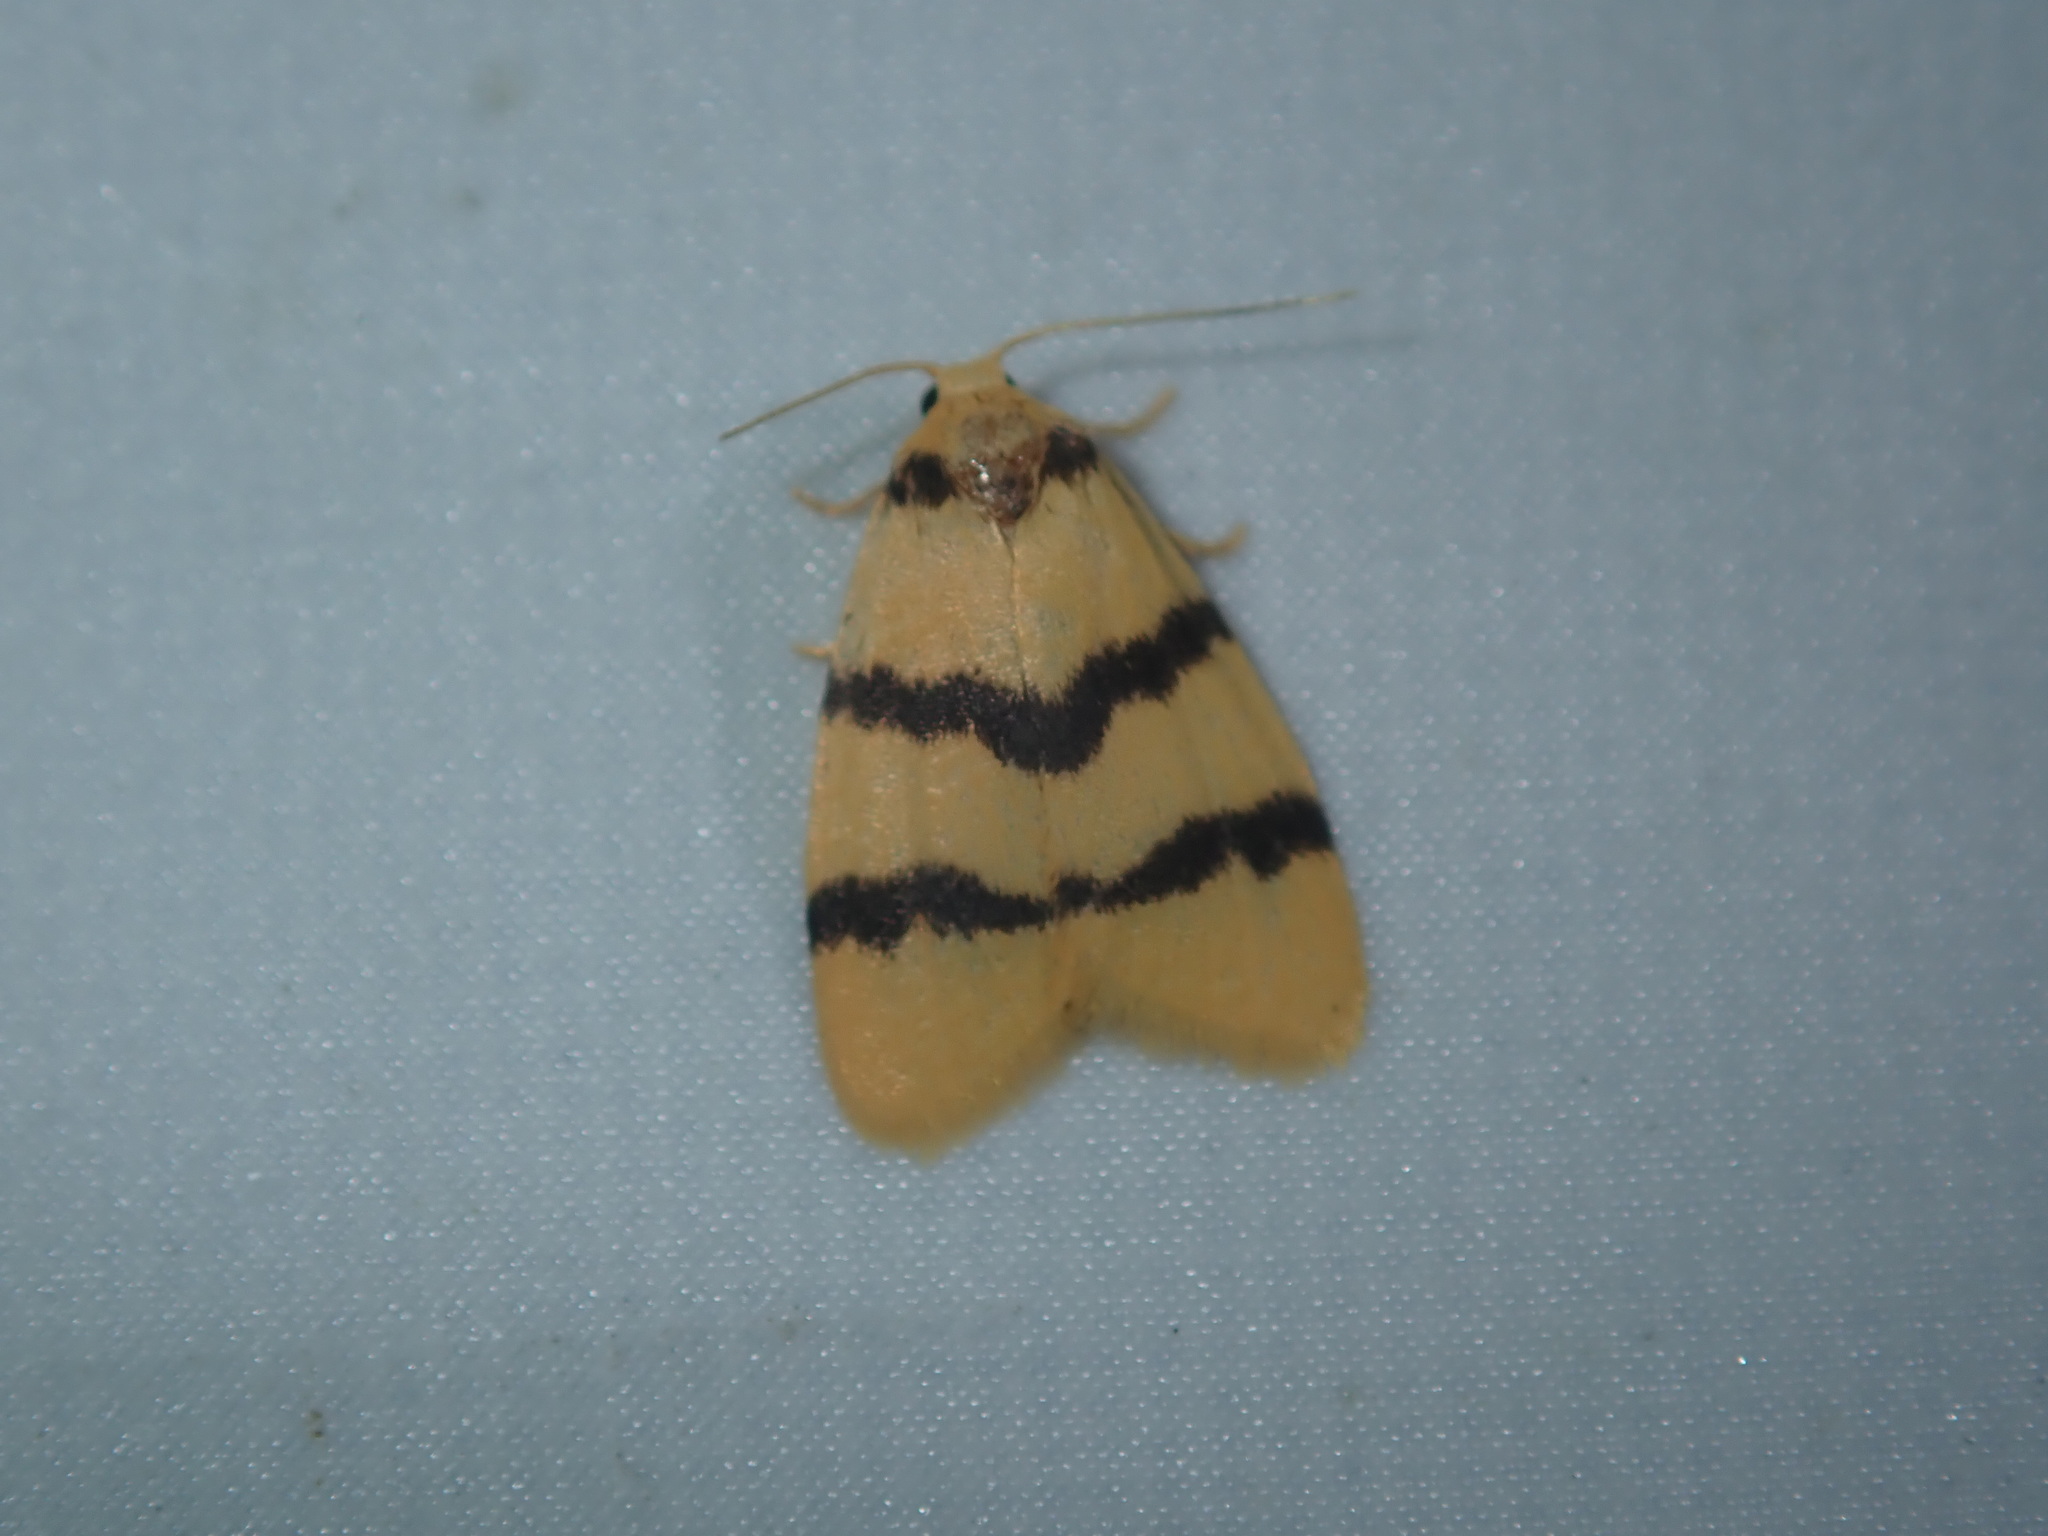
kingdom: Animalia
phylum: Arthropoda
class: Insecta
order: Lepidoptera
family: Erebidae
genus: Heliosia
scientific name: Heliosia jucunda
